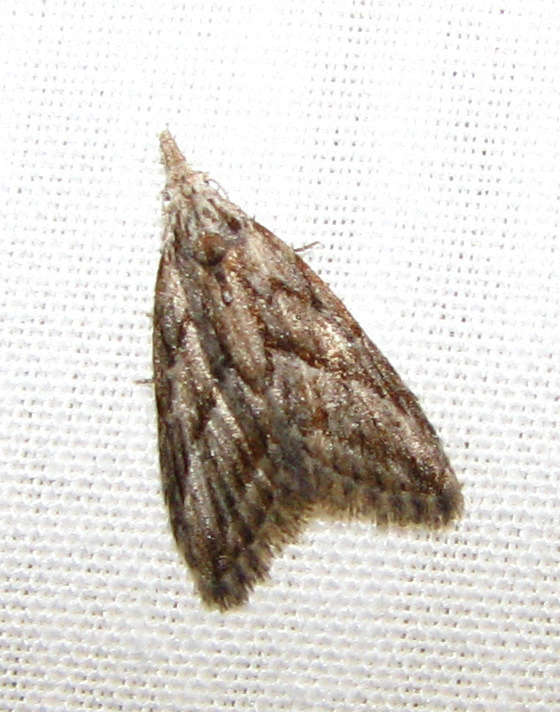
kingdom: Animalia
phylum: Arthropoda
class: Insecta
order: Lepidoptera
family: Nolidae
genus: Nola
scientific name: Nola phaeogramma
